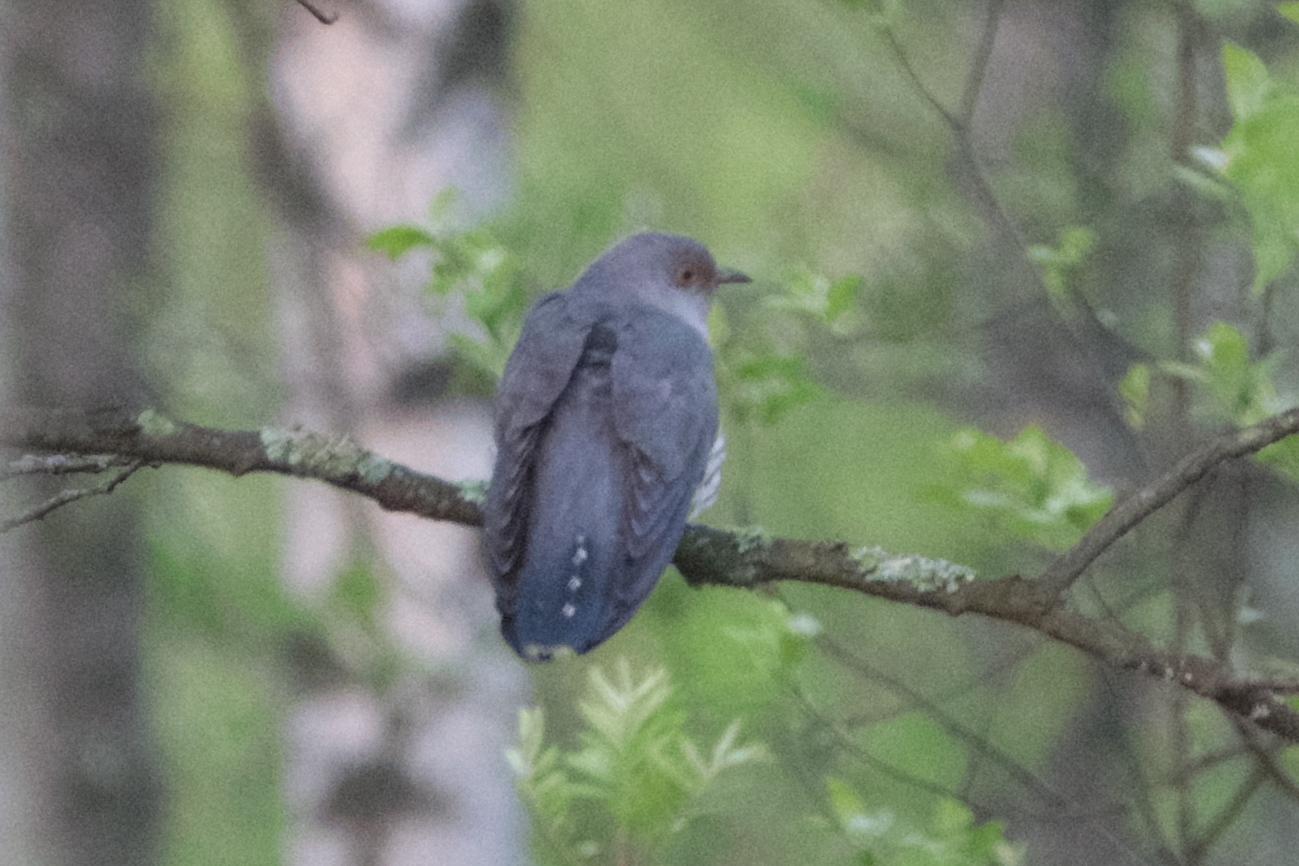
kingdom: Animalia
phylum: Chordata
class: Aves
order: Cuculiformes
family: Cuculidae
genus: Cuculus
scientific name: Cuculus canorus
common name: Common cuckoo
